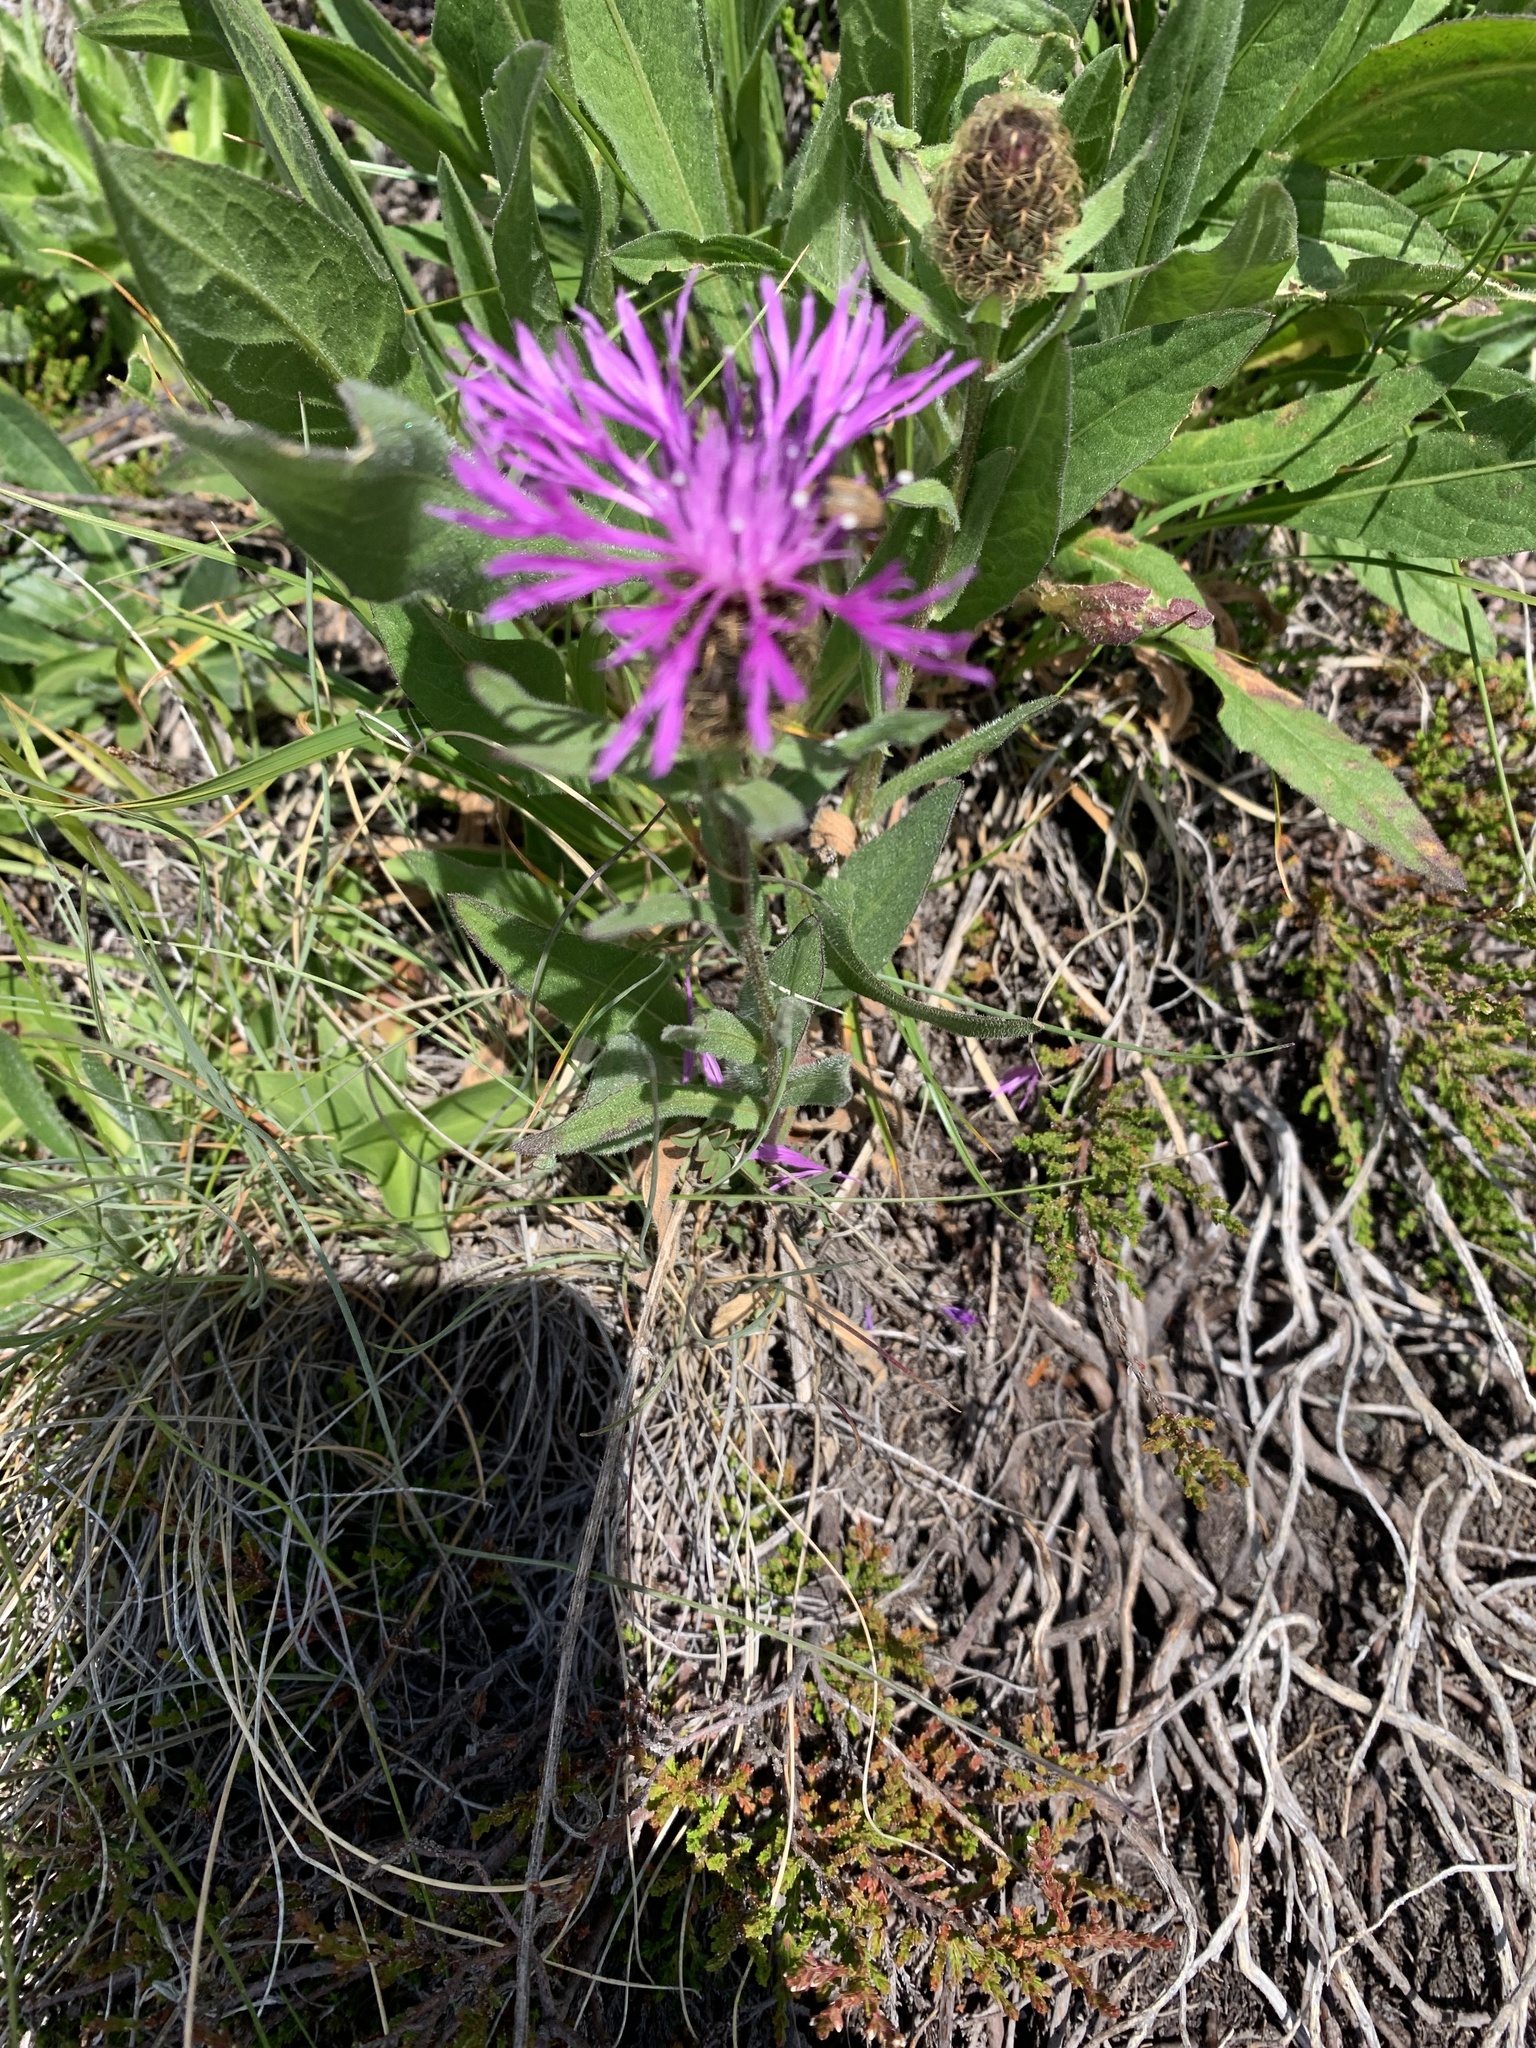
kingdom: Plantae
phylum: Tracheophyta
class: Magnoliopsida
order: Asterales
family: Asteraceae
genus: Centaurea
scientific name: Centaurea nervosa
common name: Singleflower knapweed
